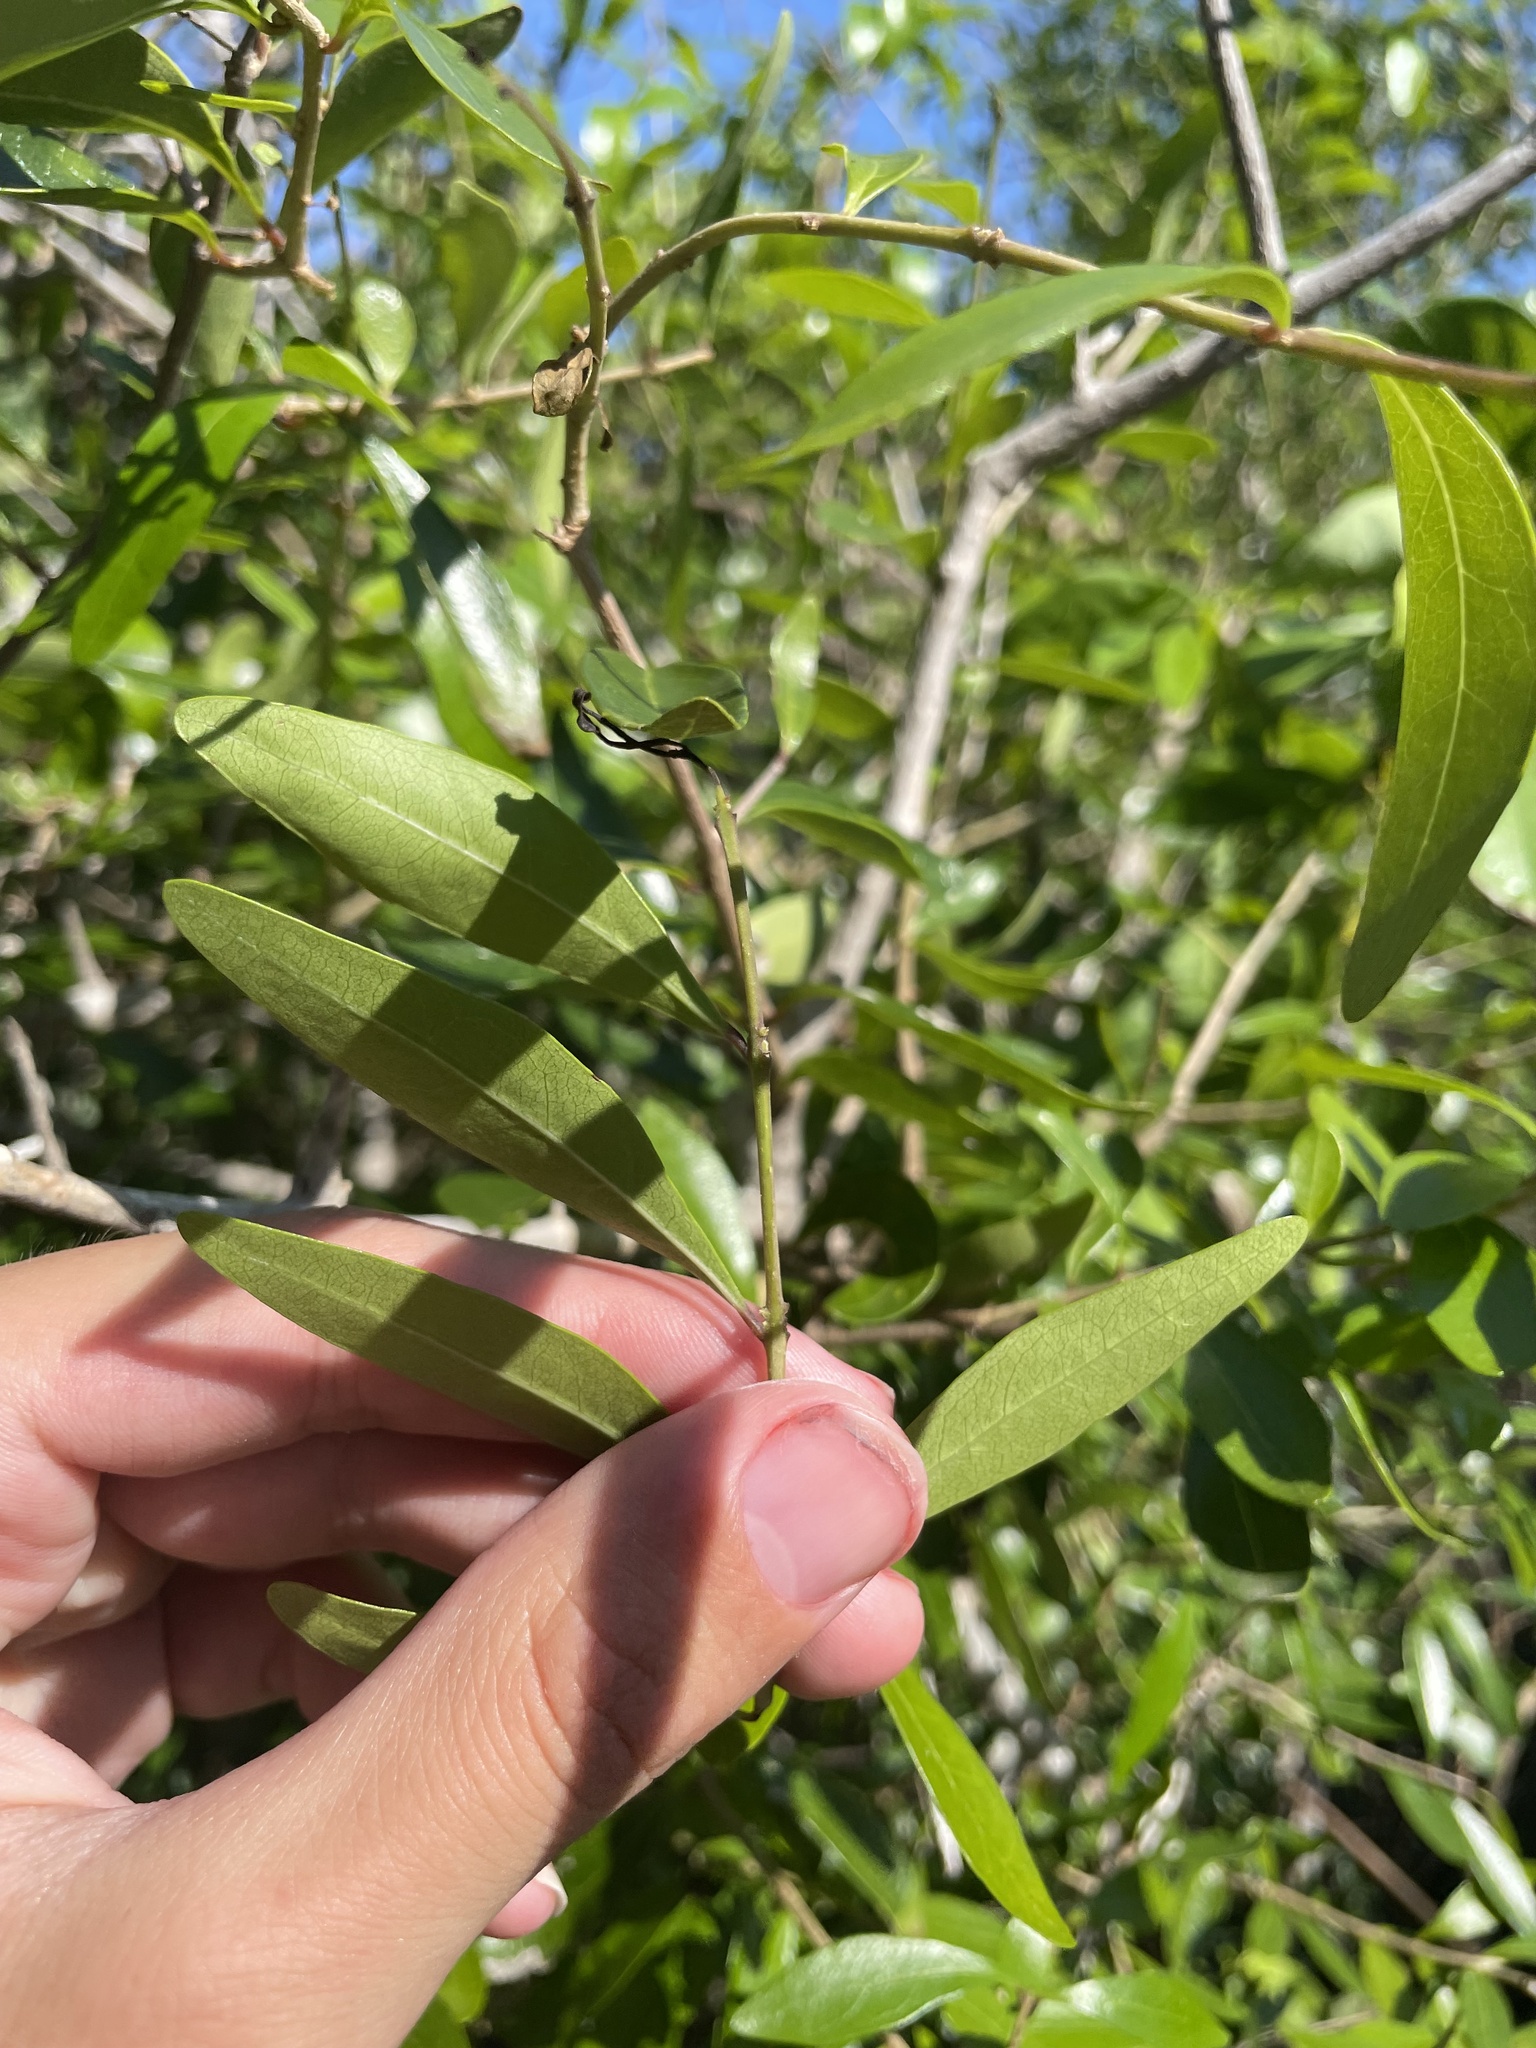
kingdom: Plantae
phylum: Tracheophyta
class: Magnoliopsida
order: Lamiales
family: Oleaceae
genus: Forestiera
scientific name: Forestiera segregata
